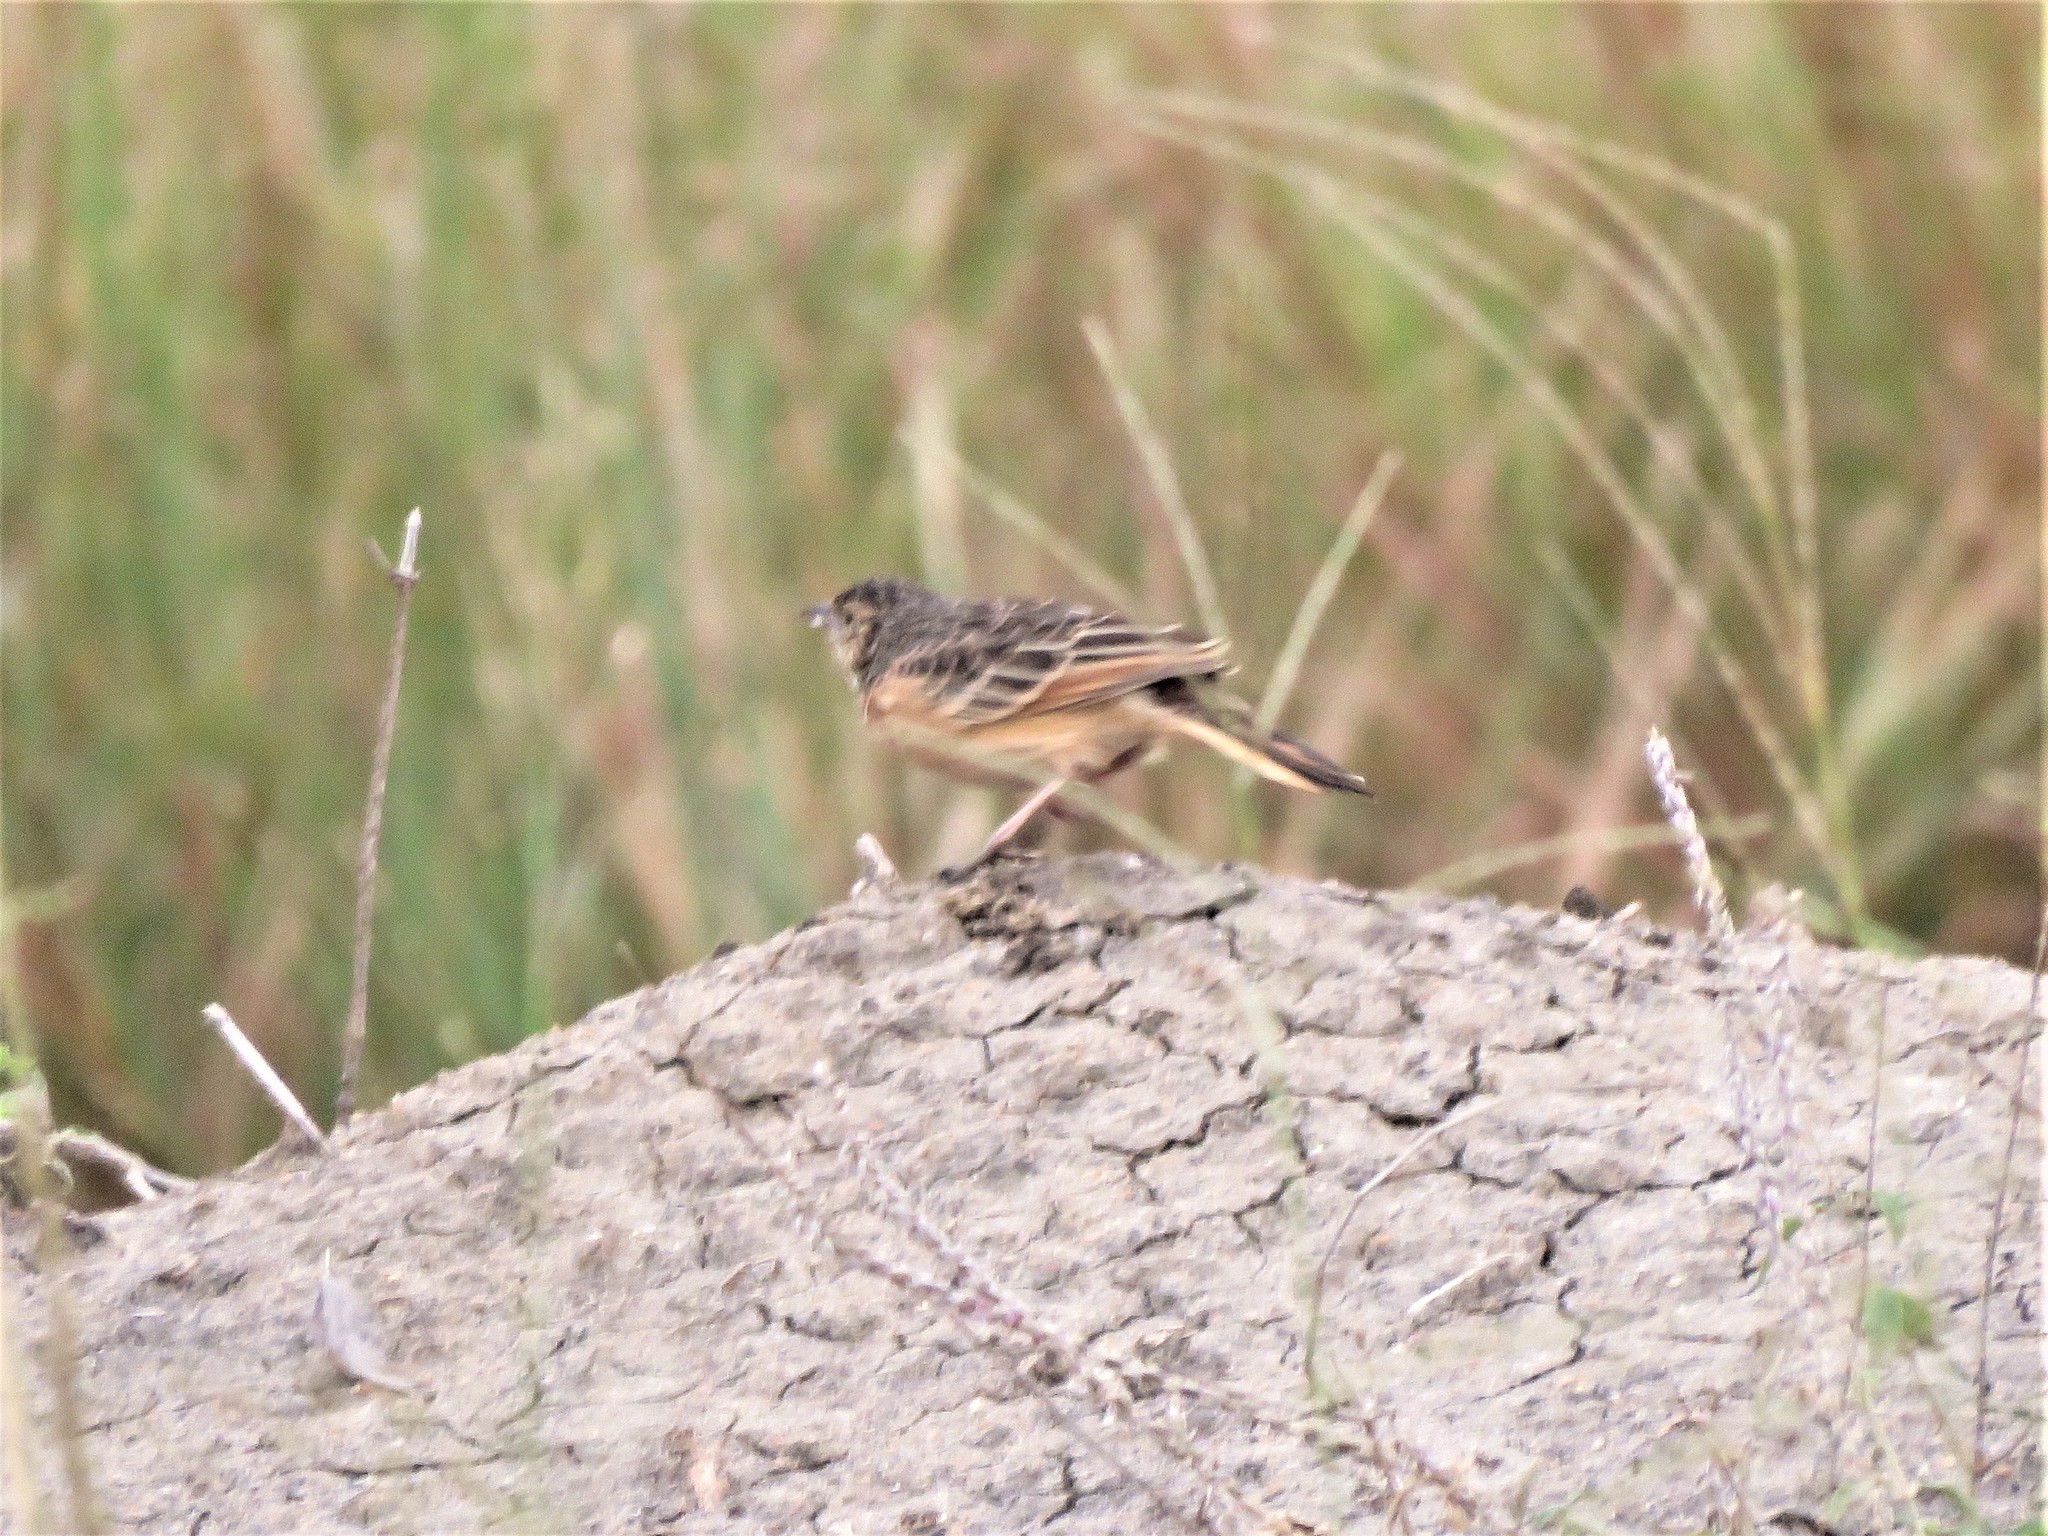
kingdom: Animalia
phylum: Chordata
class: Aves
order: Passeriformes
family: Alaudidae
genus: Mirafra
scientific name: Mirafra rufocinnamomea
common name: Flappet lark
